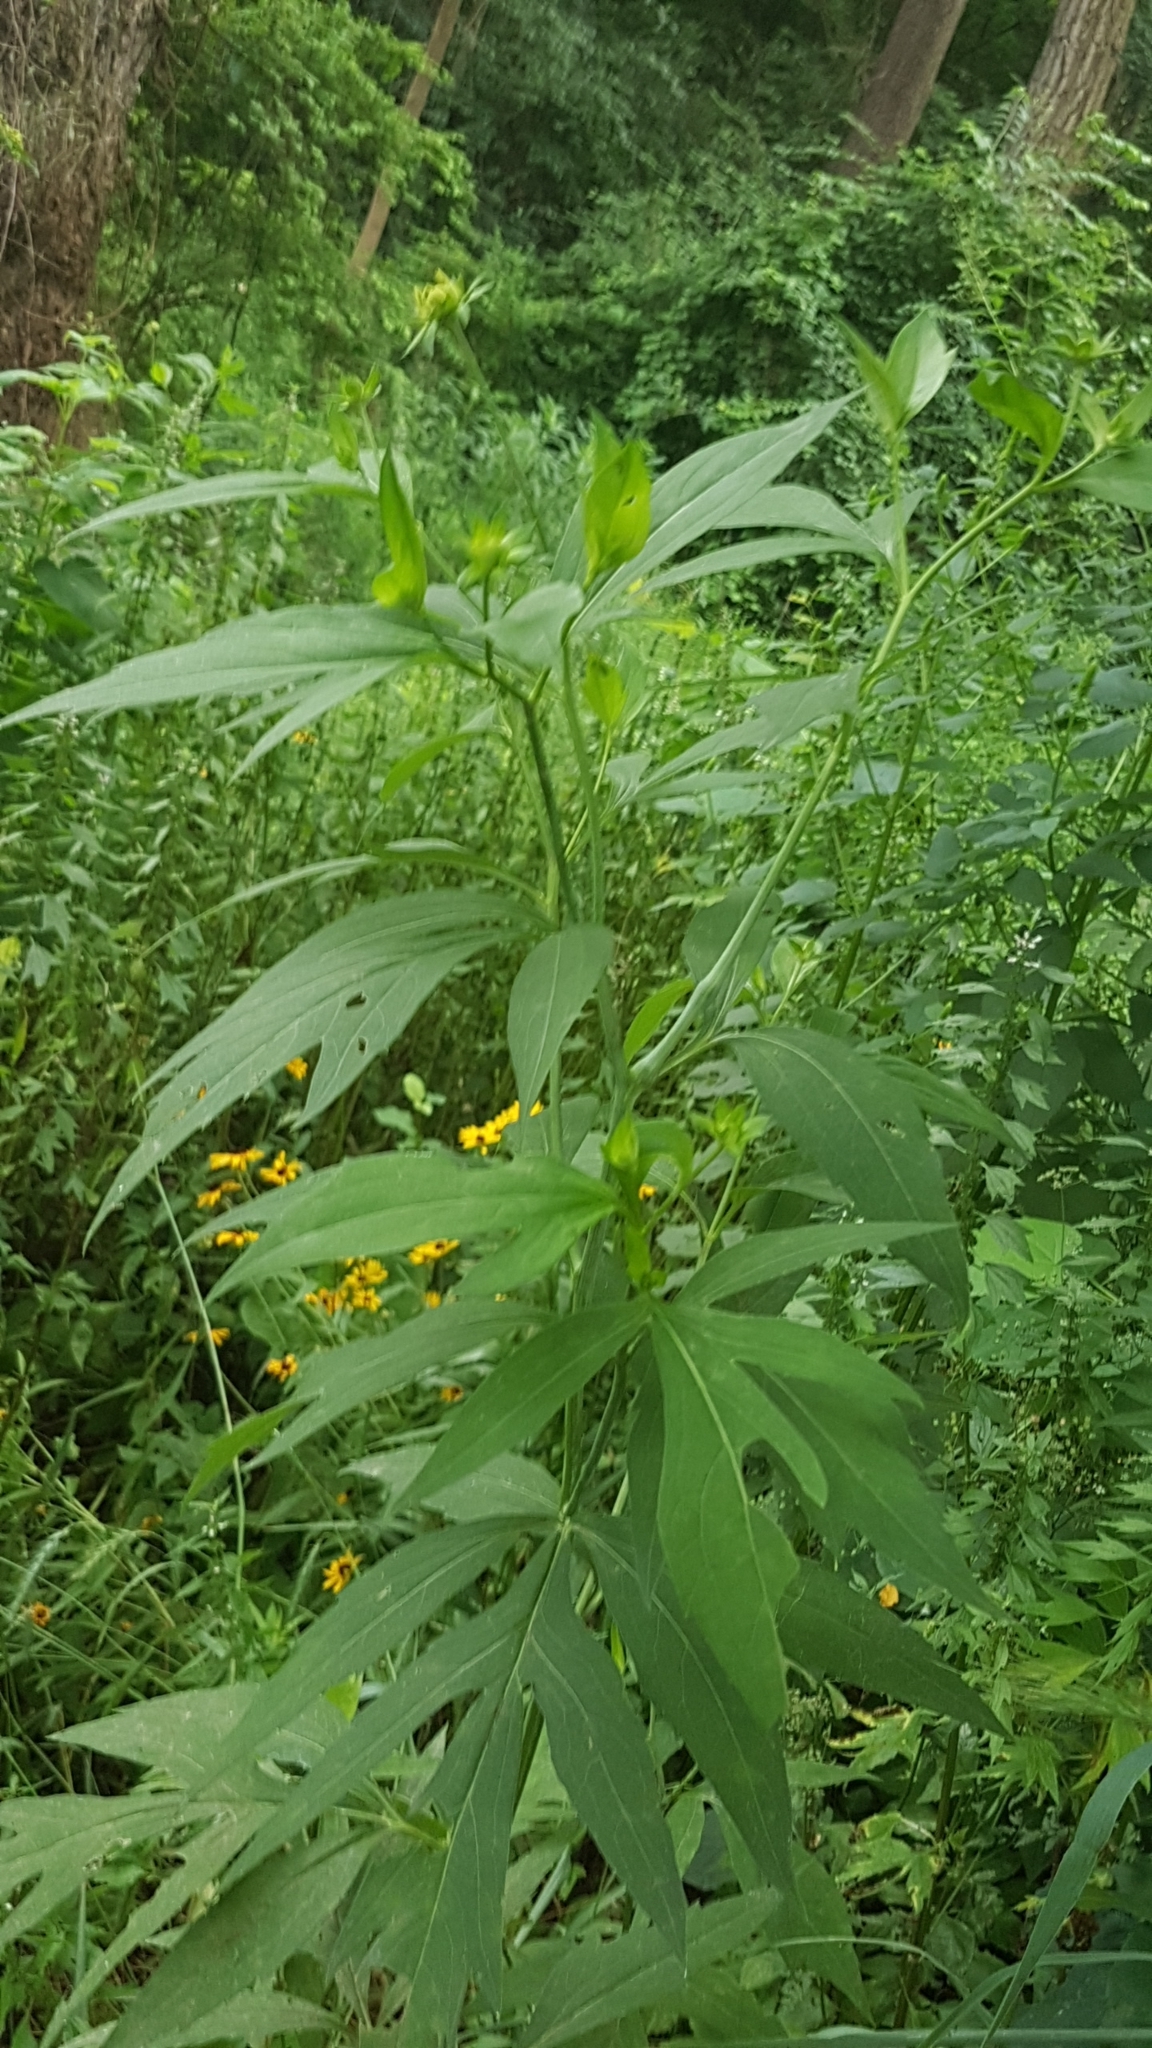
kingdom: Plantae
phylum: Tracheophyta
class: Magnoliopsida
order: Asterales
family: Asteraceae
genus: Rudbeckia
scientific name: Rudbeckia laciniata
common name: Coneflower
